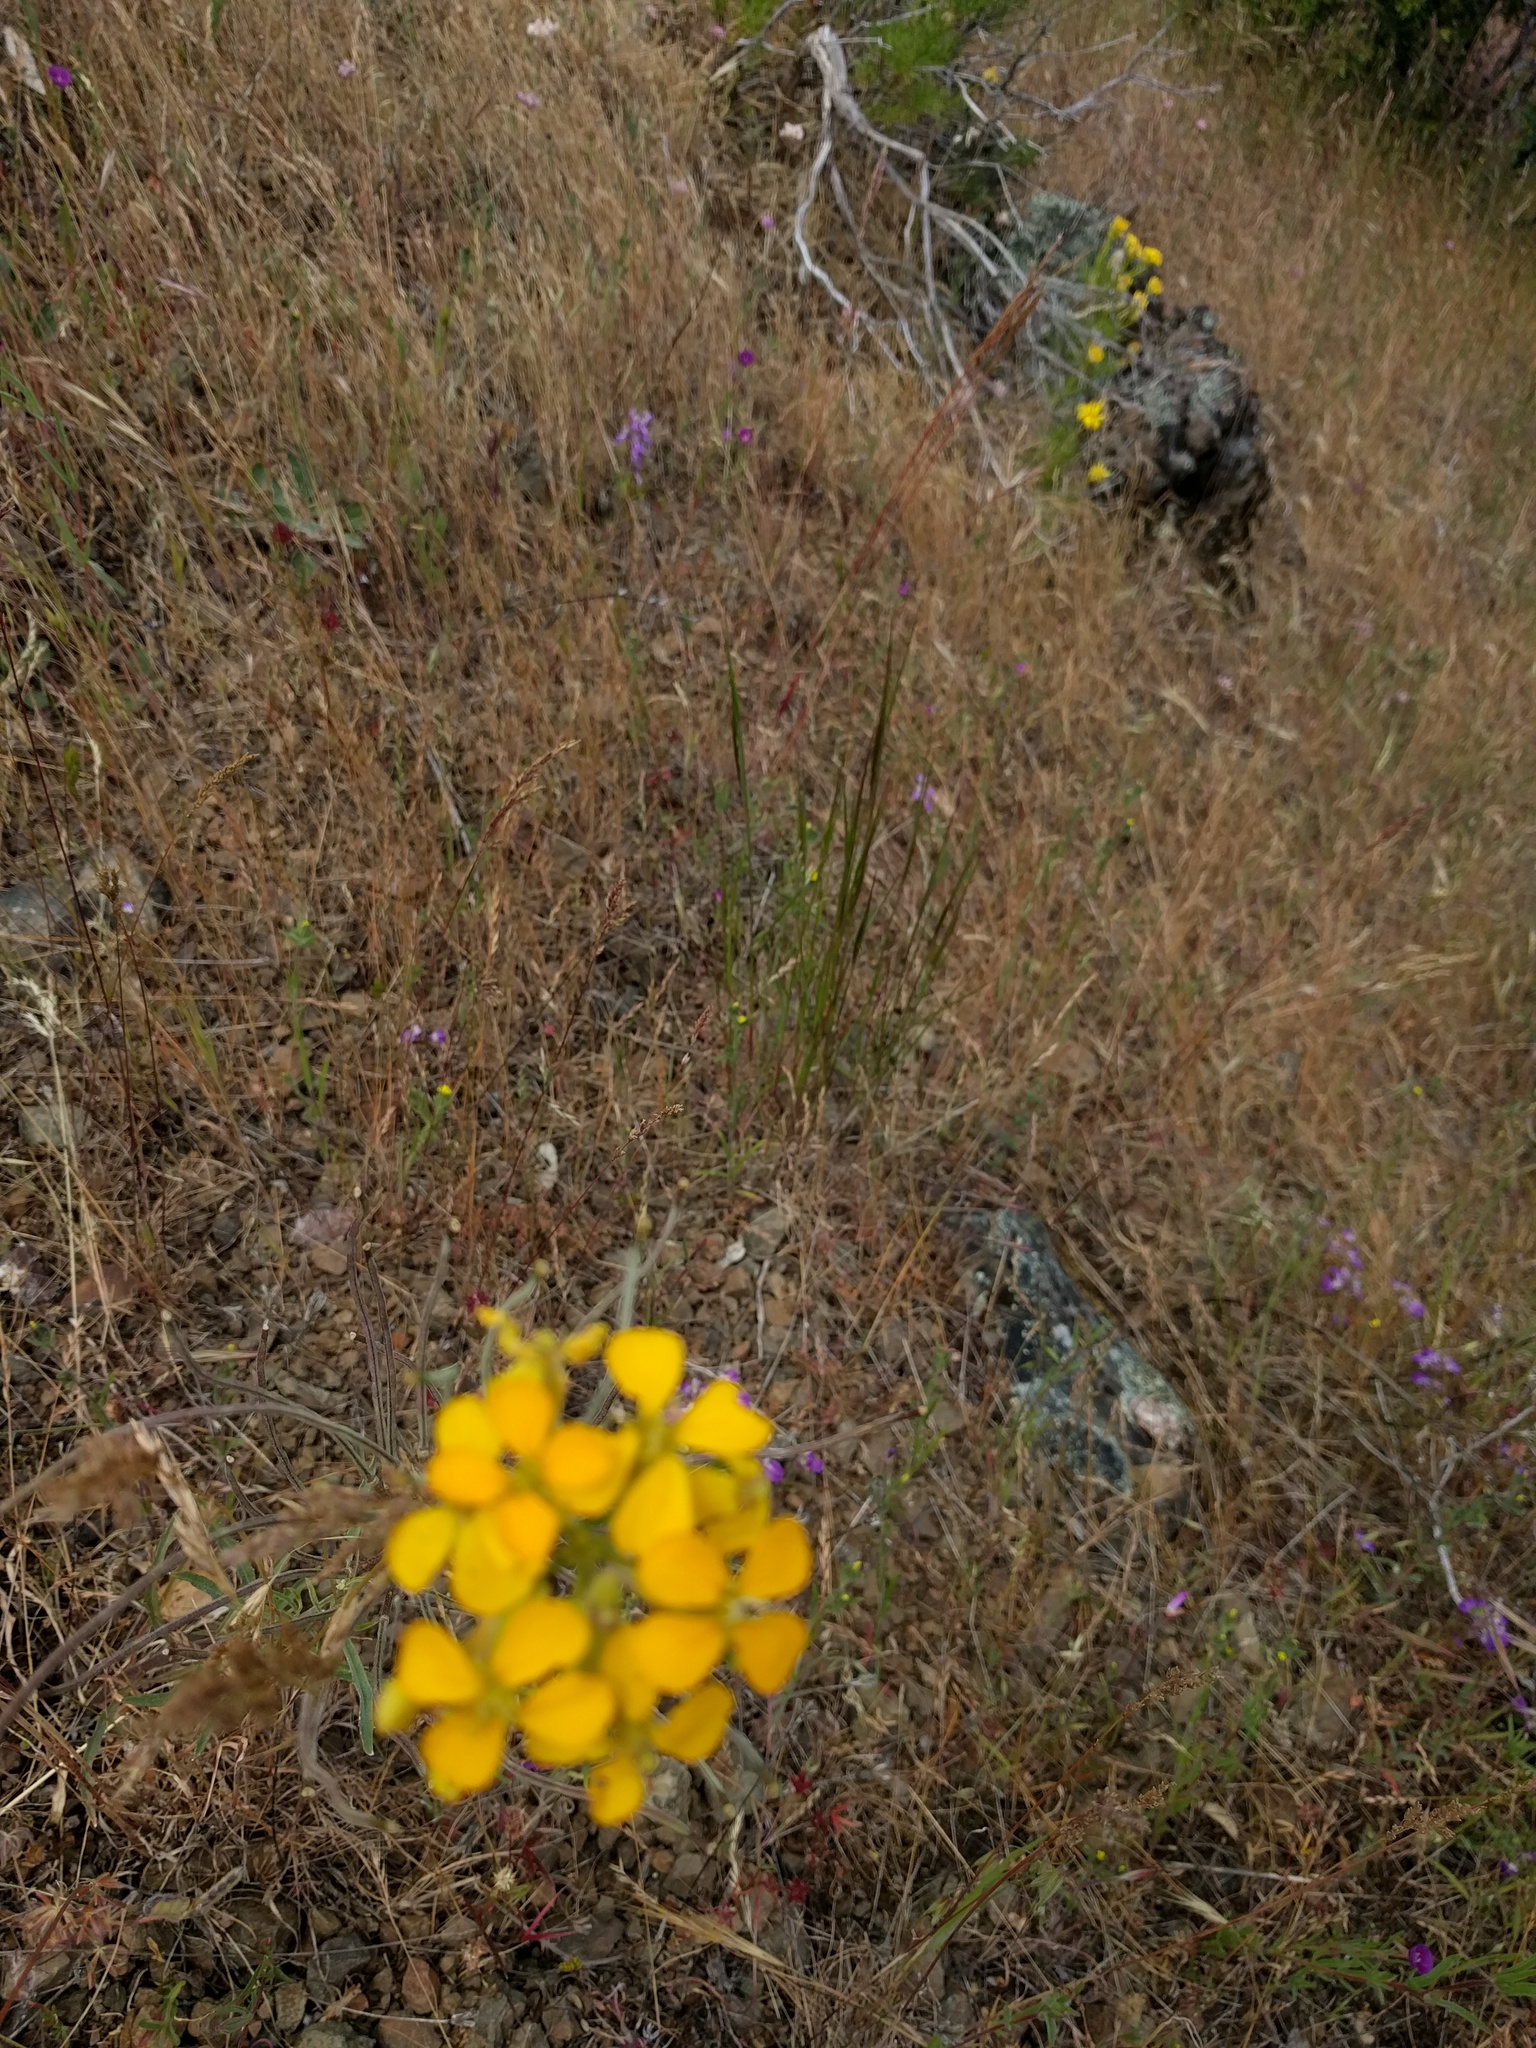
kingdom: Plantae
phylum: Tracheophyta
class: Magnoliopsida
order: Brassicales
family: Brassicaceae
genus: Erysimum
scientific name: Erysimum capitatum
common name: Western wallflower
